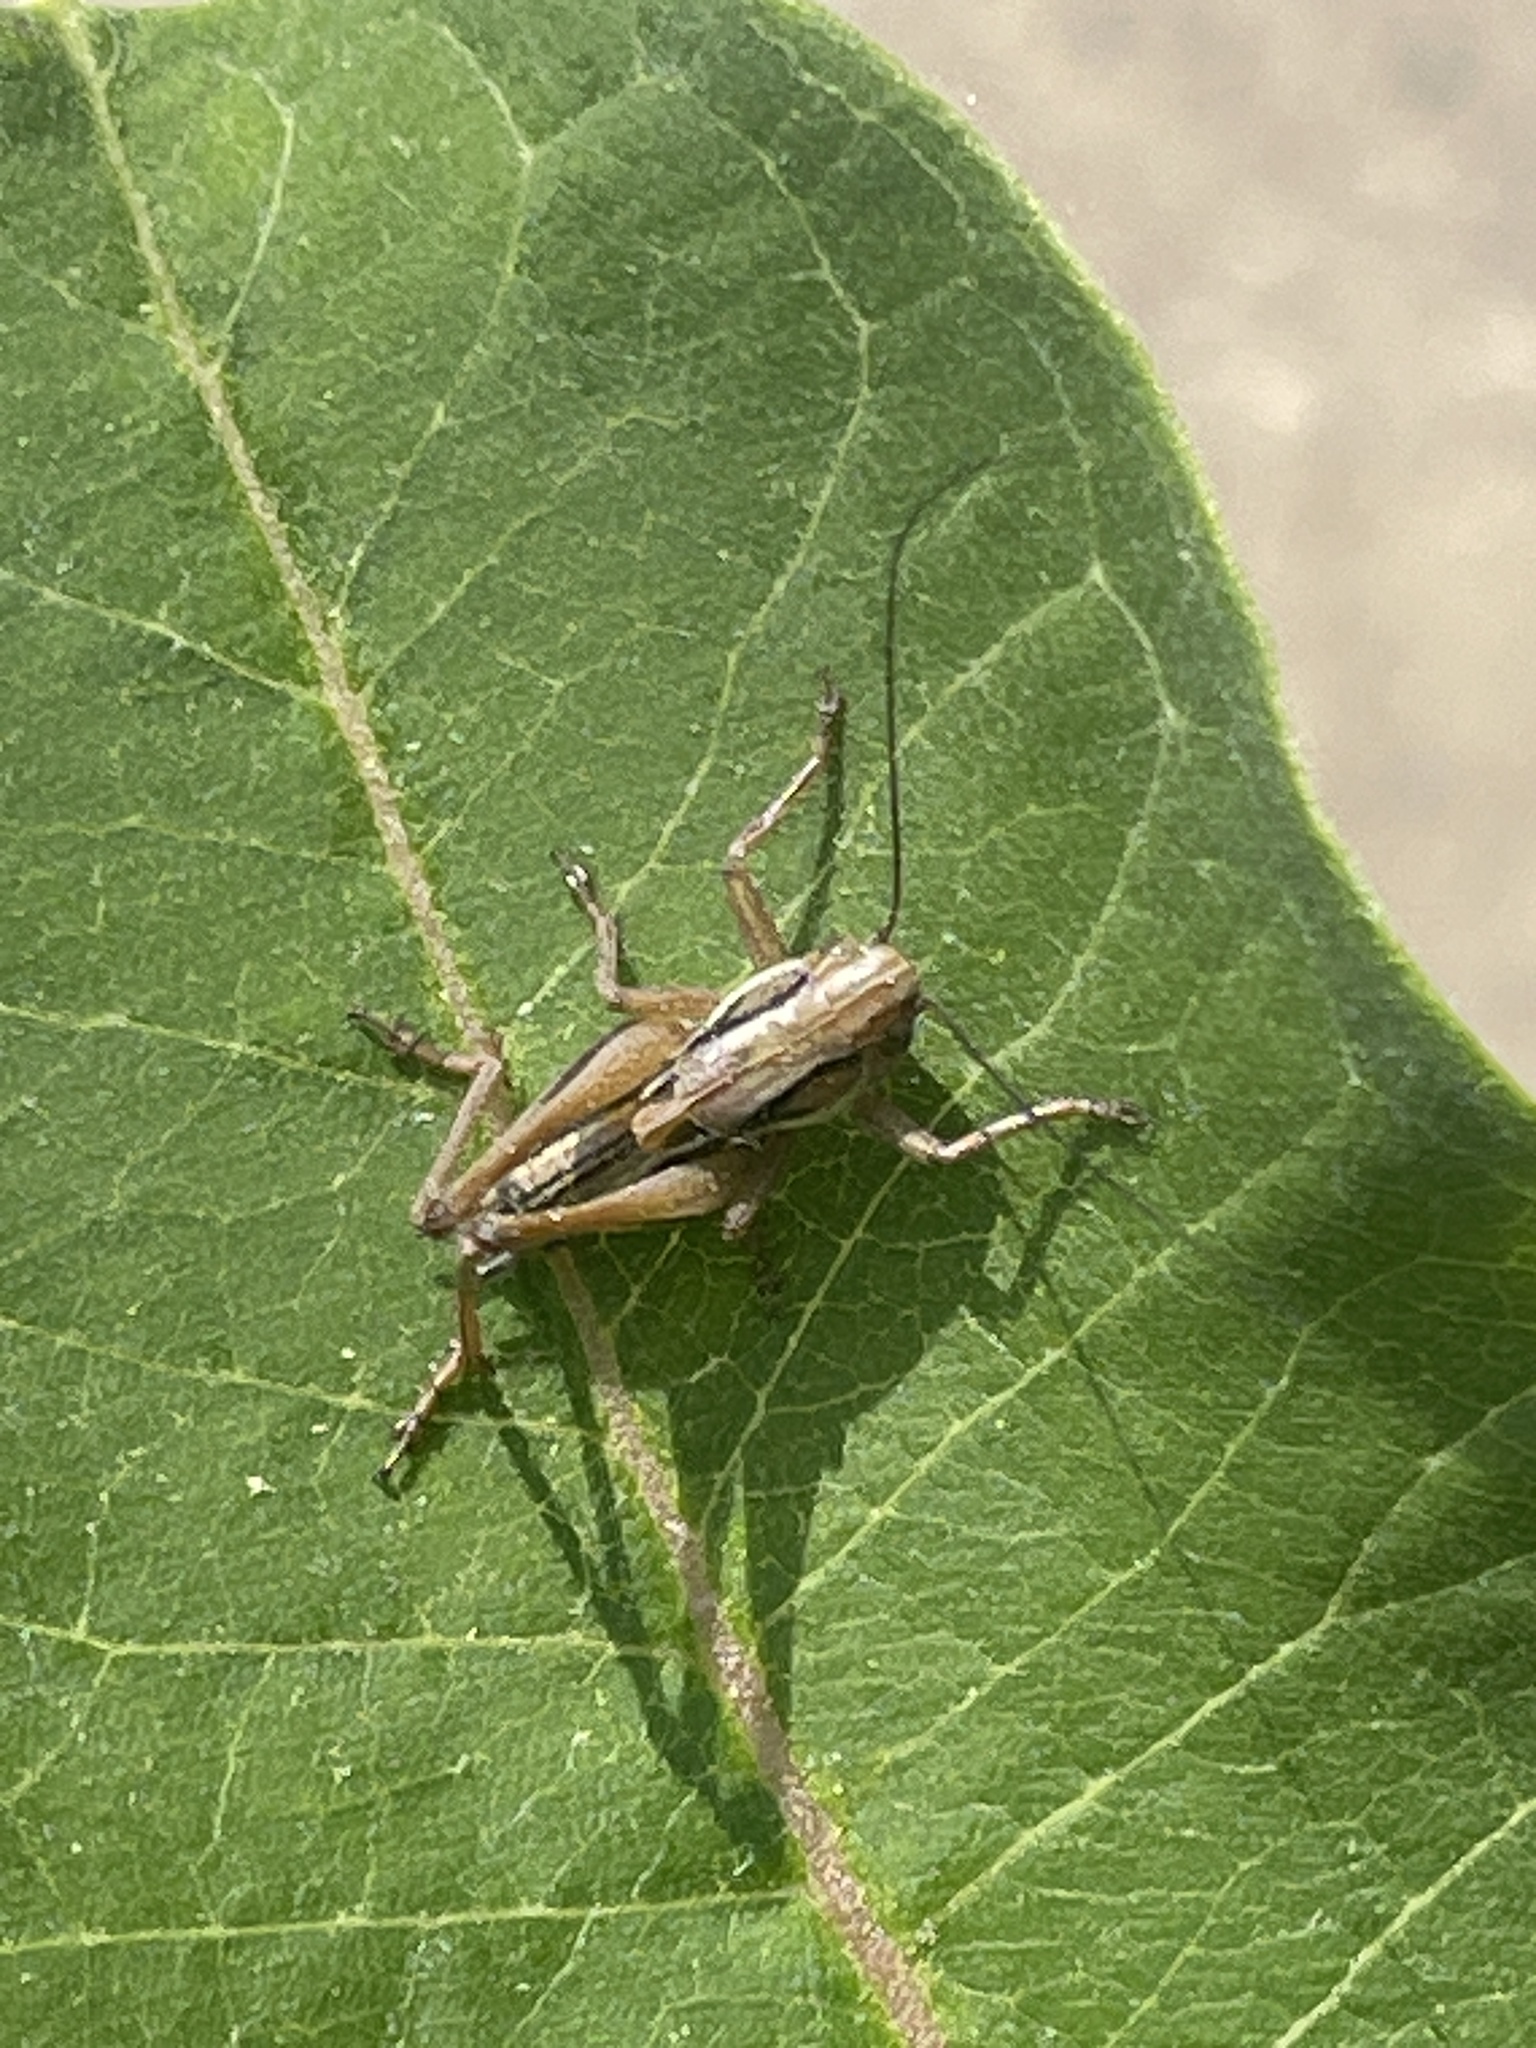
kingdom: Animalia
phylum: Arthropoda
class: Insecta
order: Orthoptera
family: Tettigoniidae
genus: Roeseliana
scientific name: Roeseliana roeselii
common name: Roesel's bush cricket
